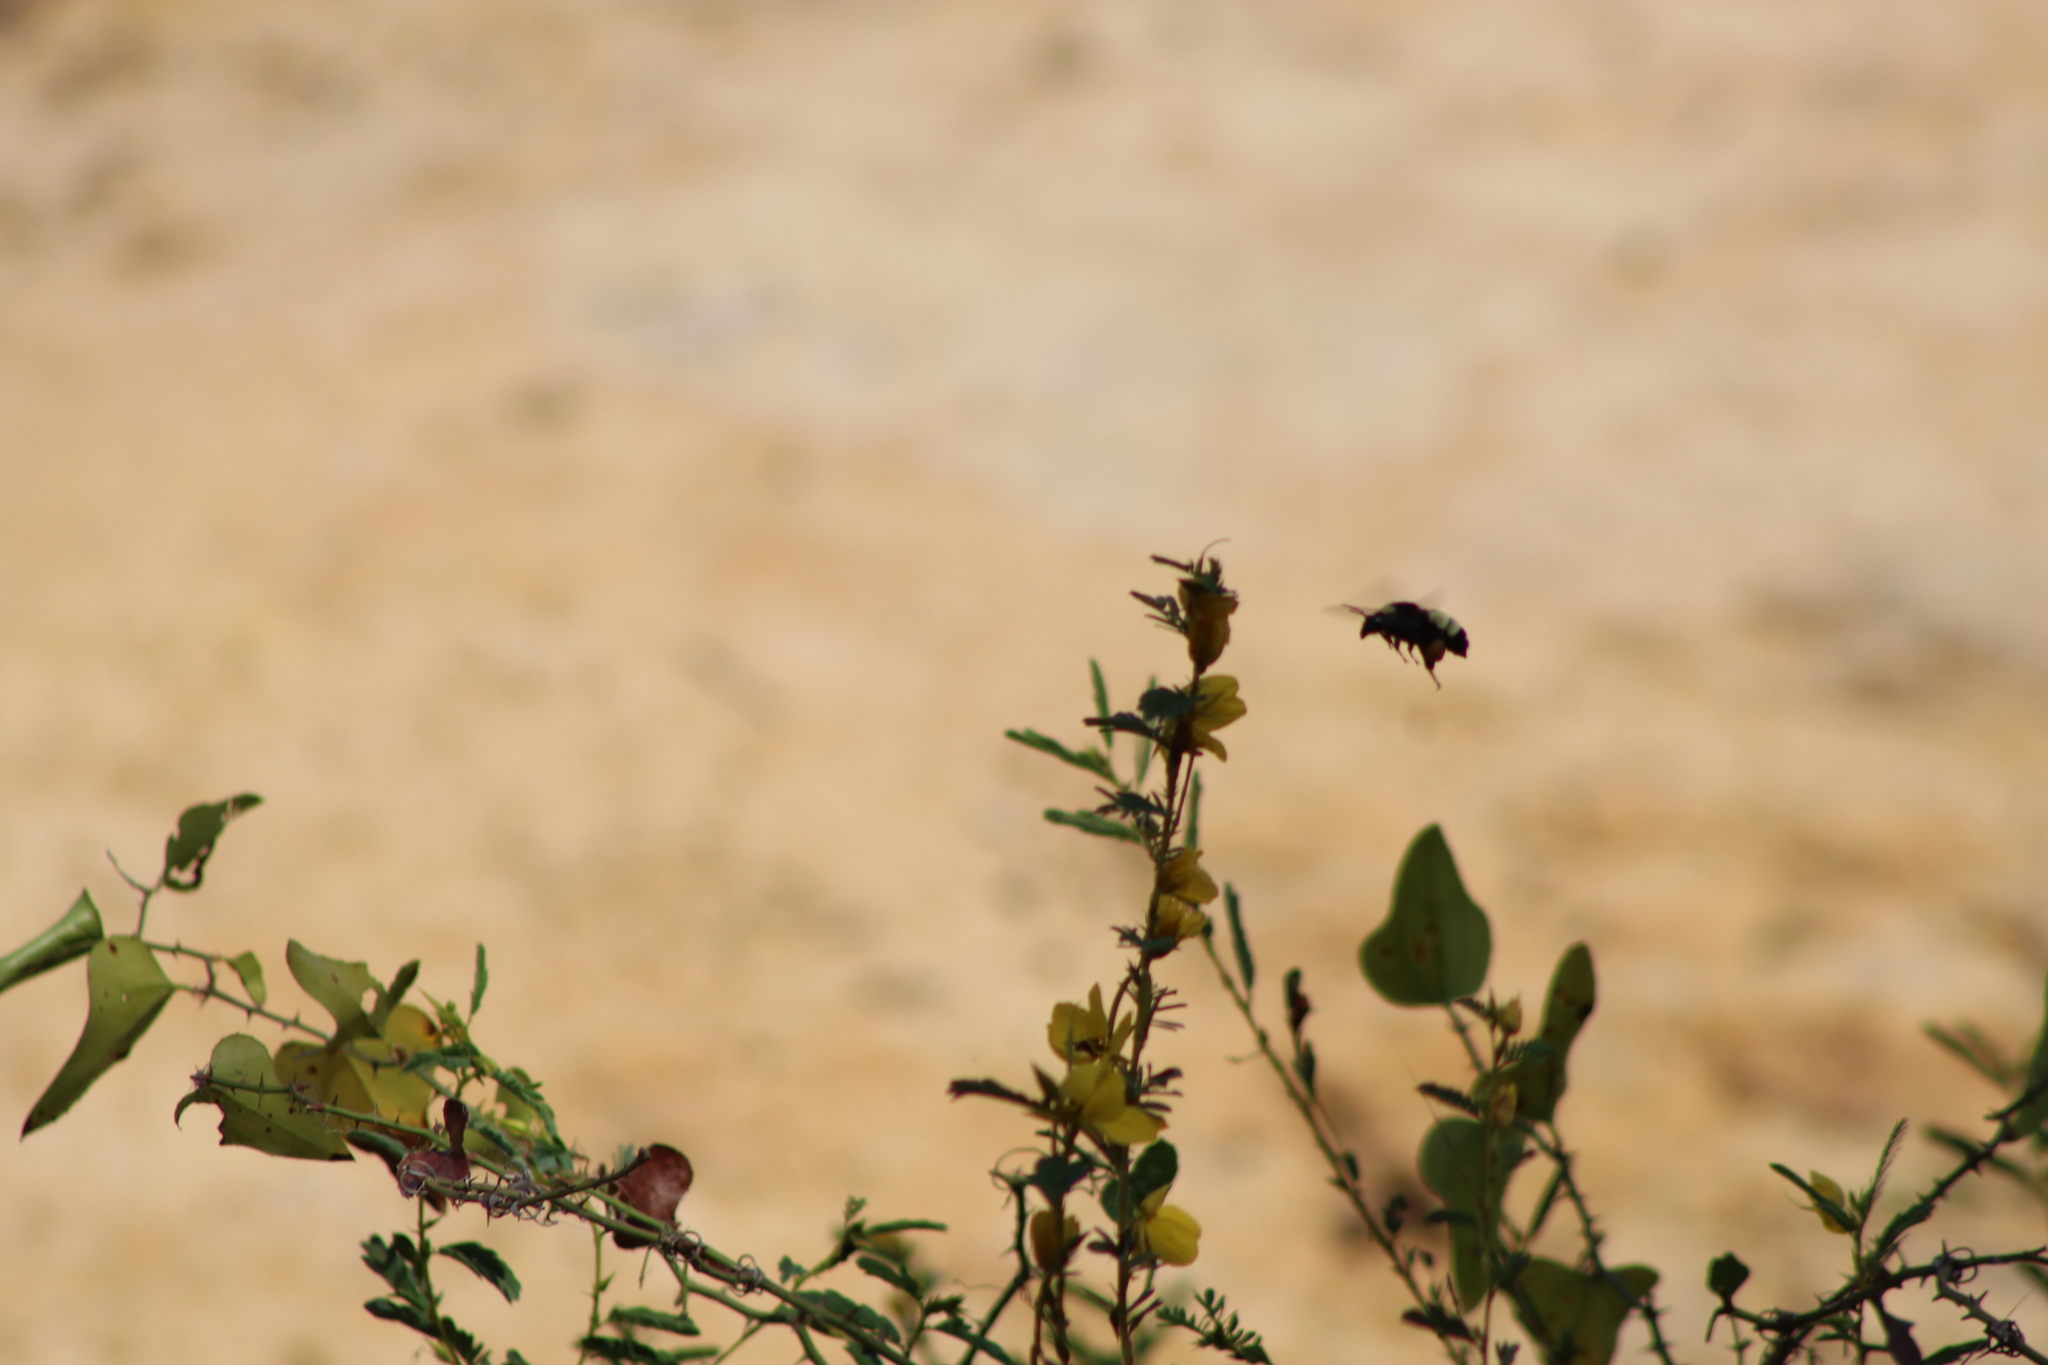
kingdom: Animalia
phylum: Arthropoda
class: Insecta
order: Hymenoptera
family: Apidae
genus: Bombus
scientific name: Bombus pensylvanicus
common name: Bumble bee
